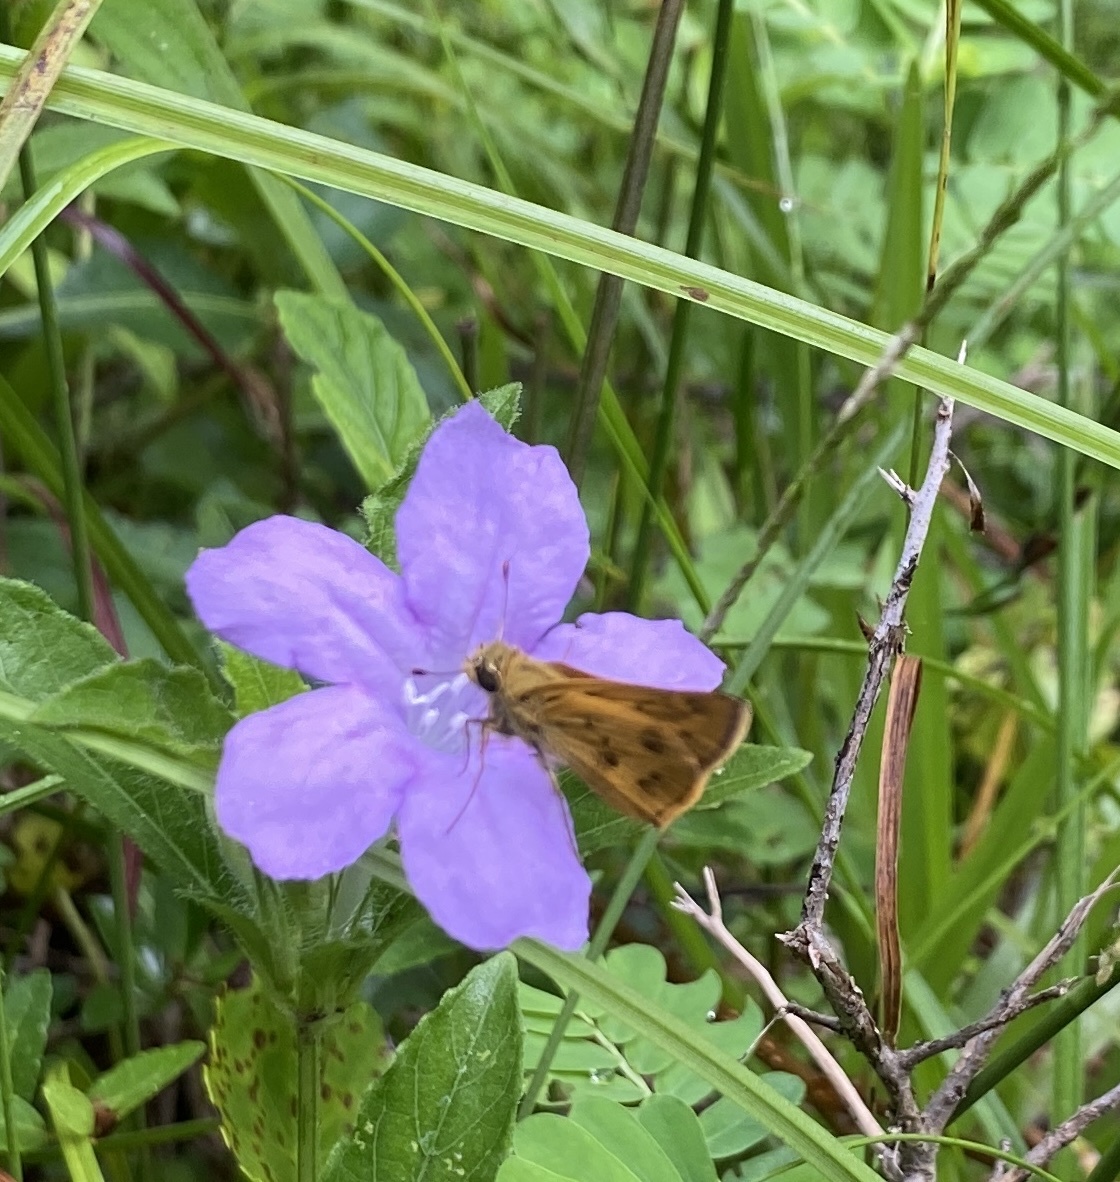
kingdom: Animalia
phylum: Arthropoda
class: Insecta
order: Lepidoptera
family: Hesperiidae
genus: Polites
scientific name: Polites vibex
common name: Whirlabout
